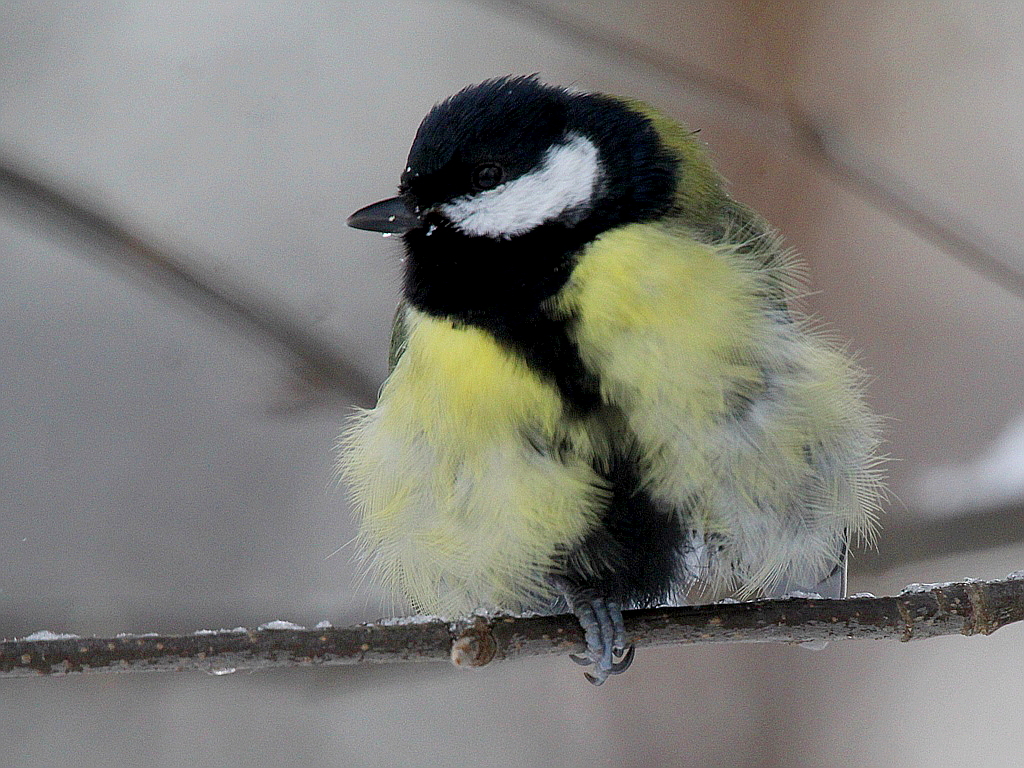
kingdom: Animalia
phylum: Chordata
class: Aves
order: Passeriformes
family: Paridae
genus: Parus
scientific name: Parus major
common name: Great tit
